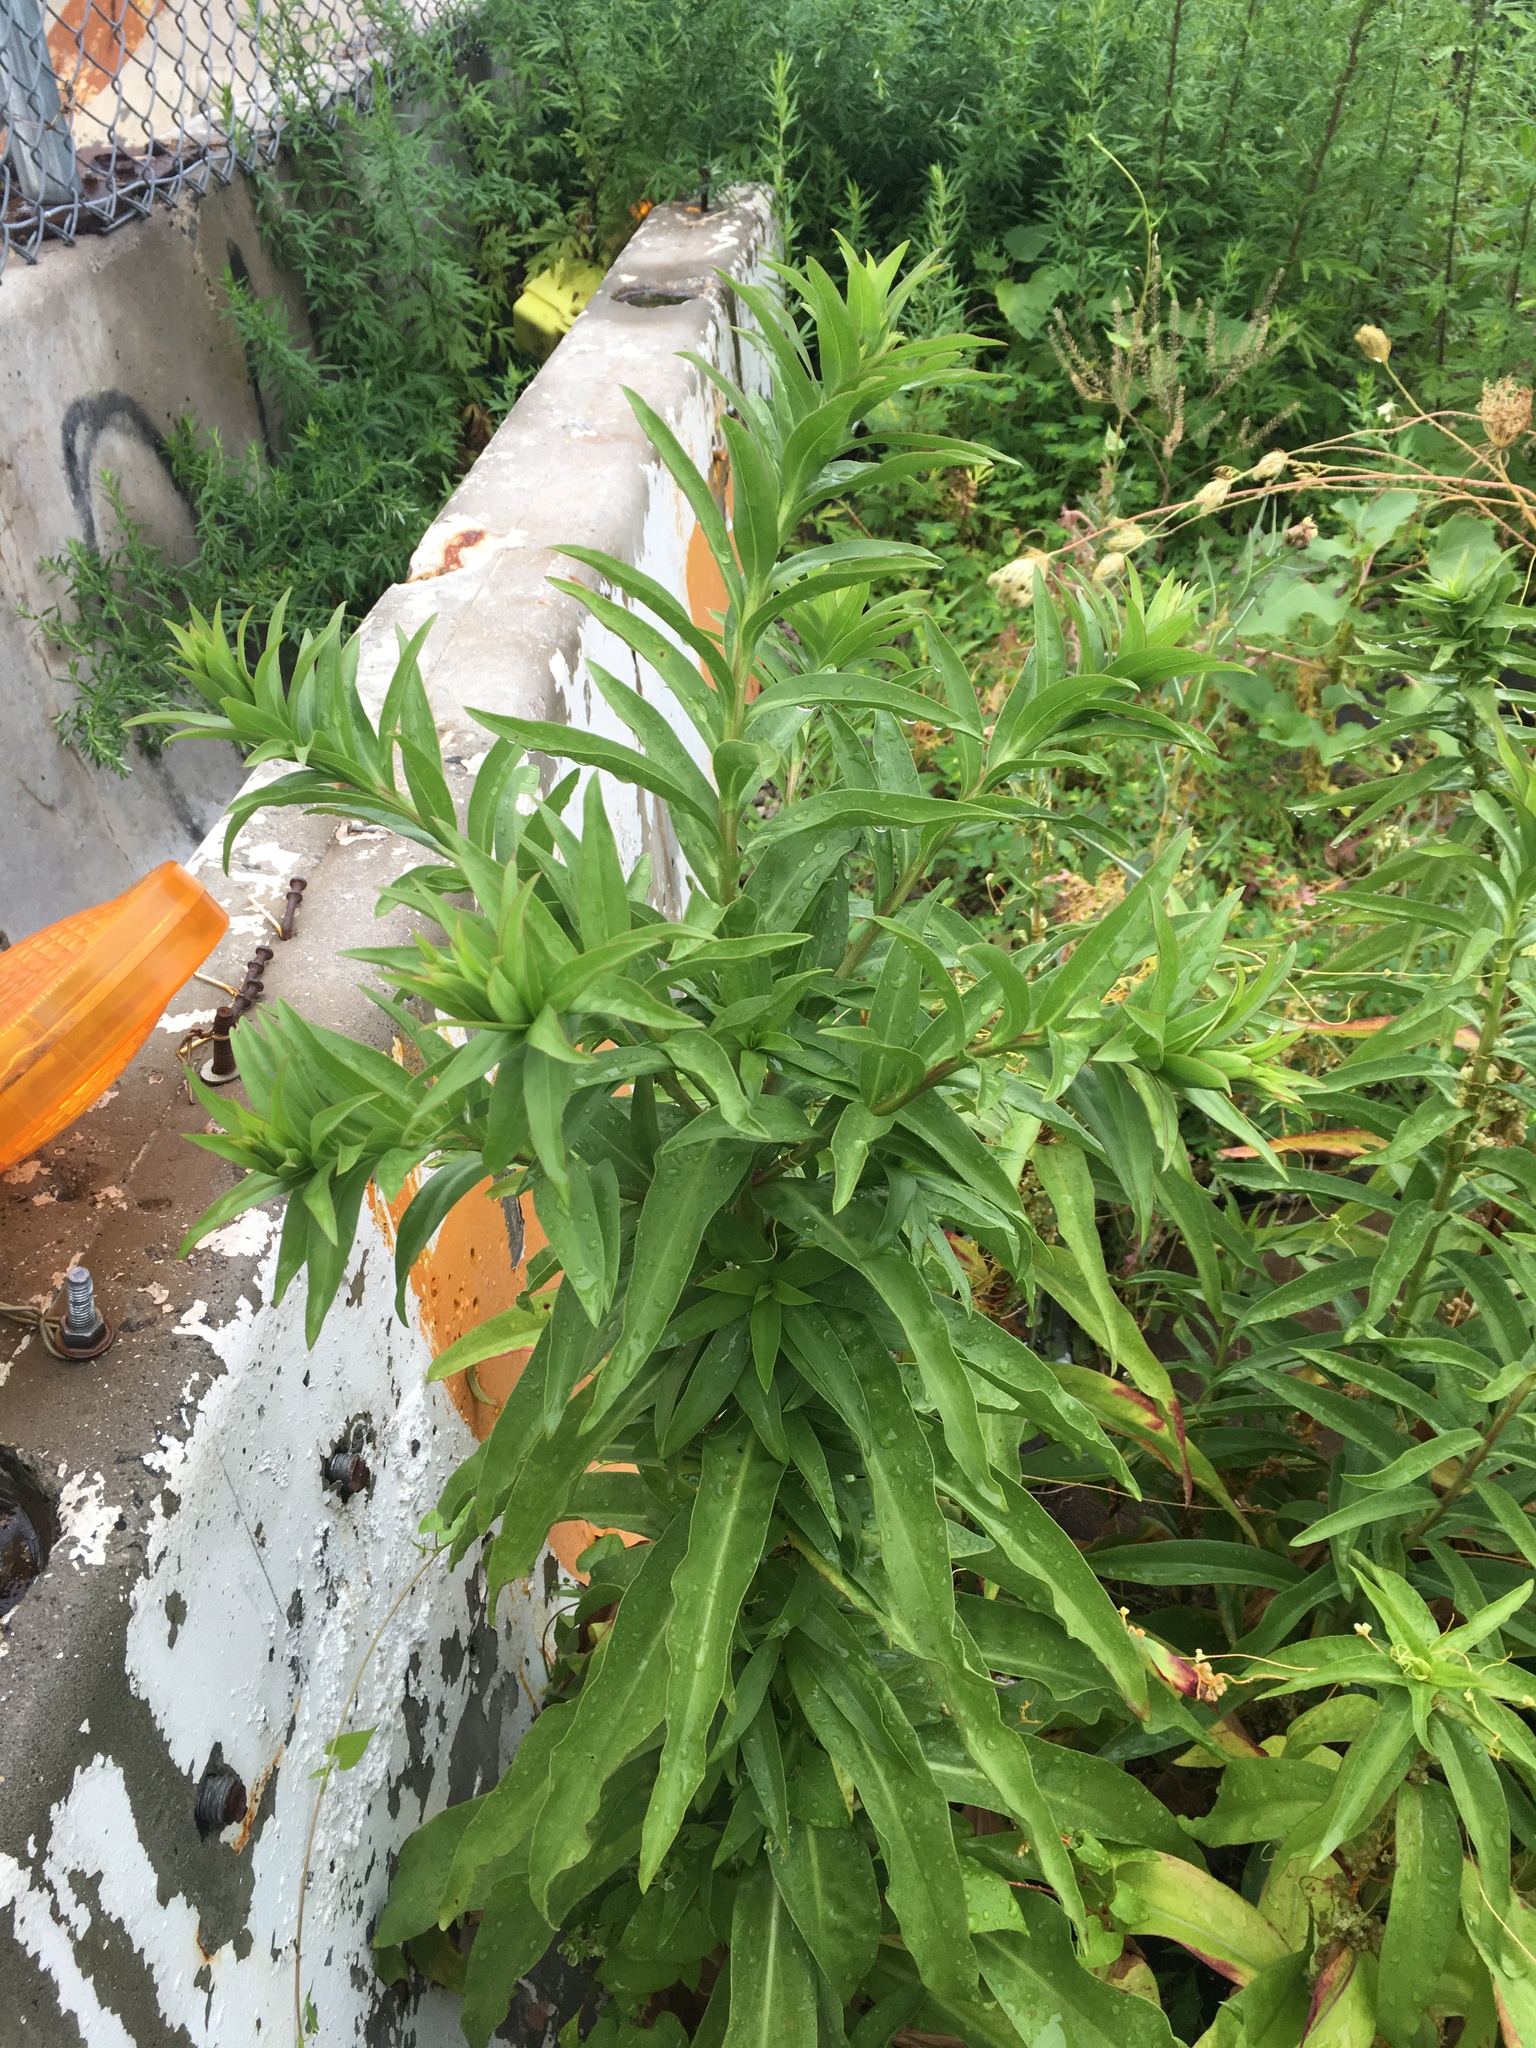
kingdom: Plantae
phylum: Tracheophyta
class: Magnoliopsida
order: Asterales
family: Asteraceae
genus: Solidago
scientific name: Solidago sempervirens
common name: Salt-marsh goldenrod
